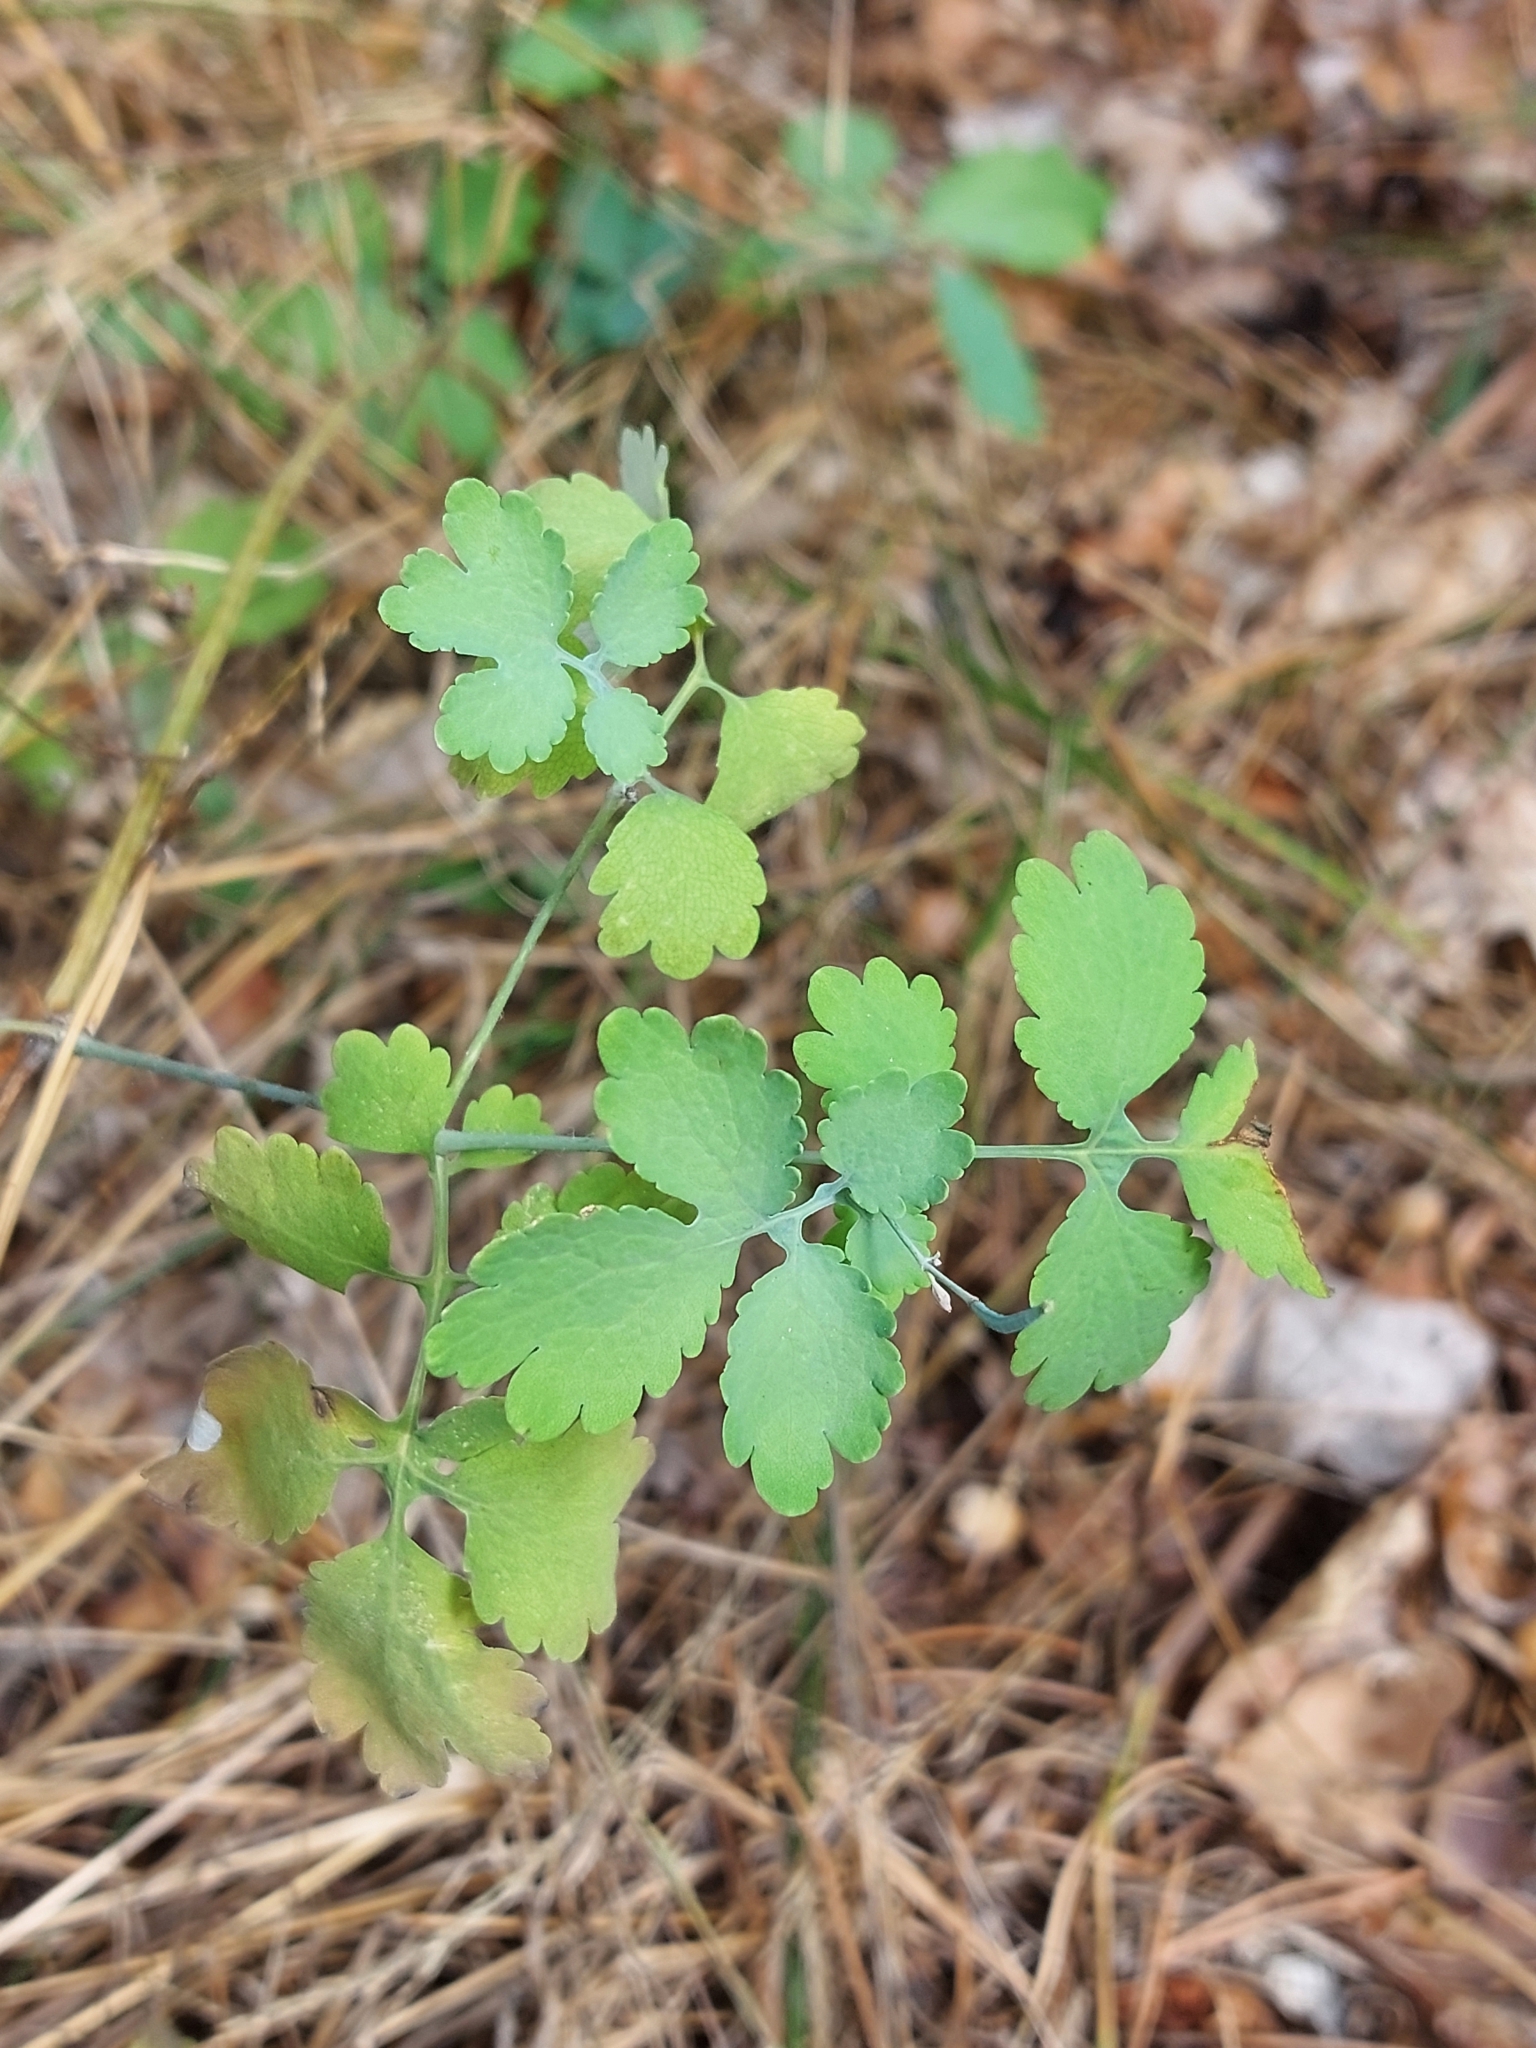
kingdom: Plantae
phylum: Tracheophyta
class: Magnoliopsida
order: Ranunculales
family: Papaveraceae
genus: Chelidonium
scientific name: Chelidonium majus
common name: Greater celandine
